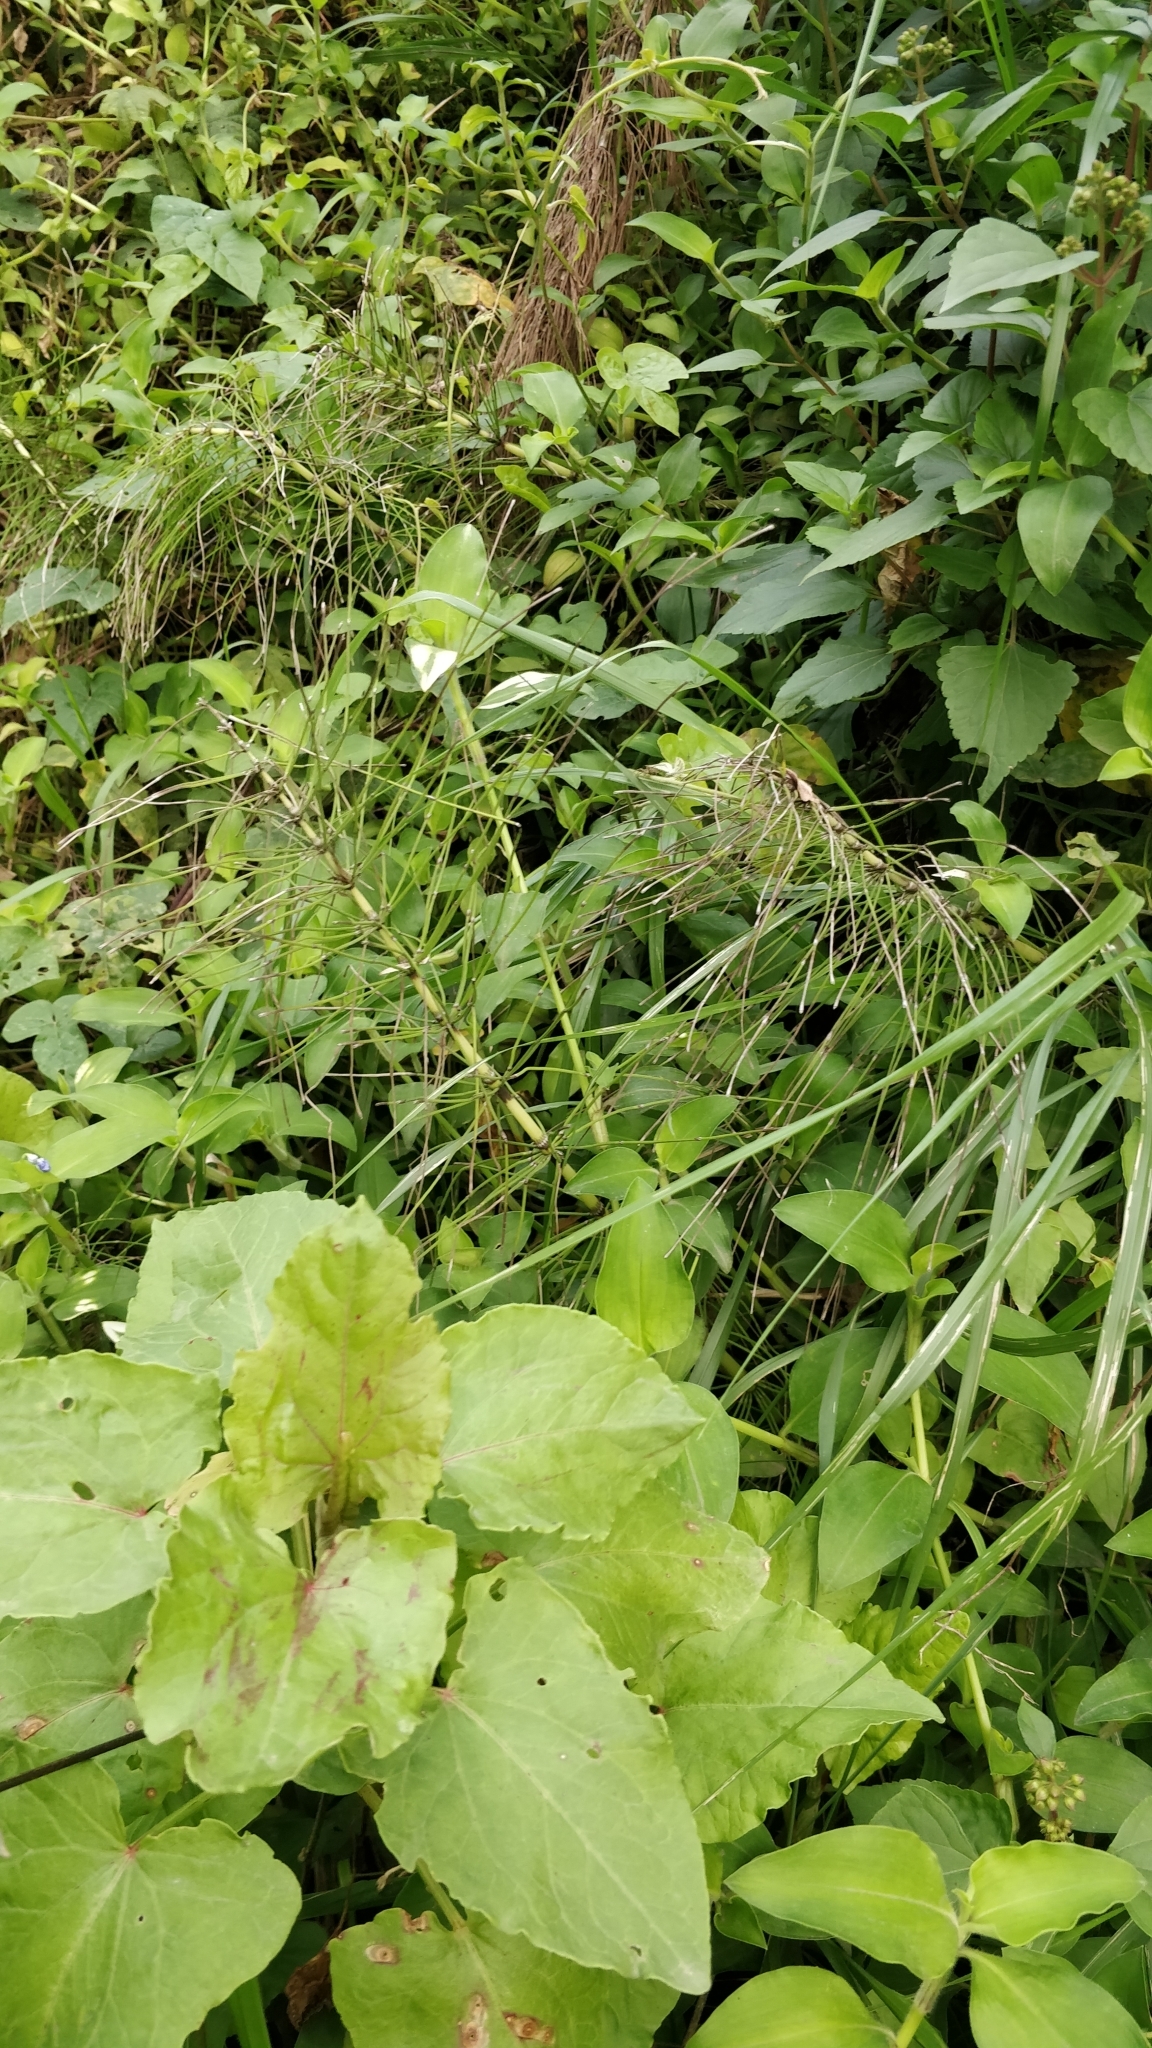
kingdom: Plantae
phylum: Tracheophyta
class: Polypodiopsida
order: Equisetales
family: Equisetaceae
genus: Equisetum
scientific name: Equisetum telmateia
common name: Great horsetail
